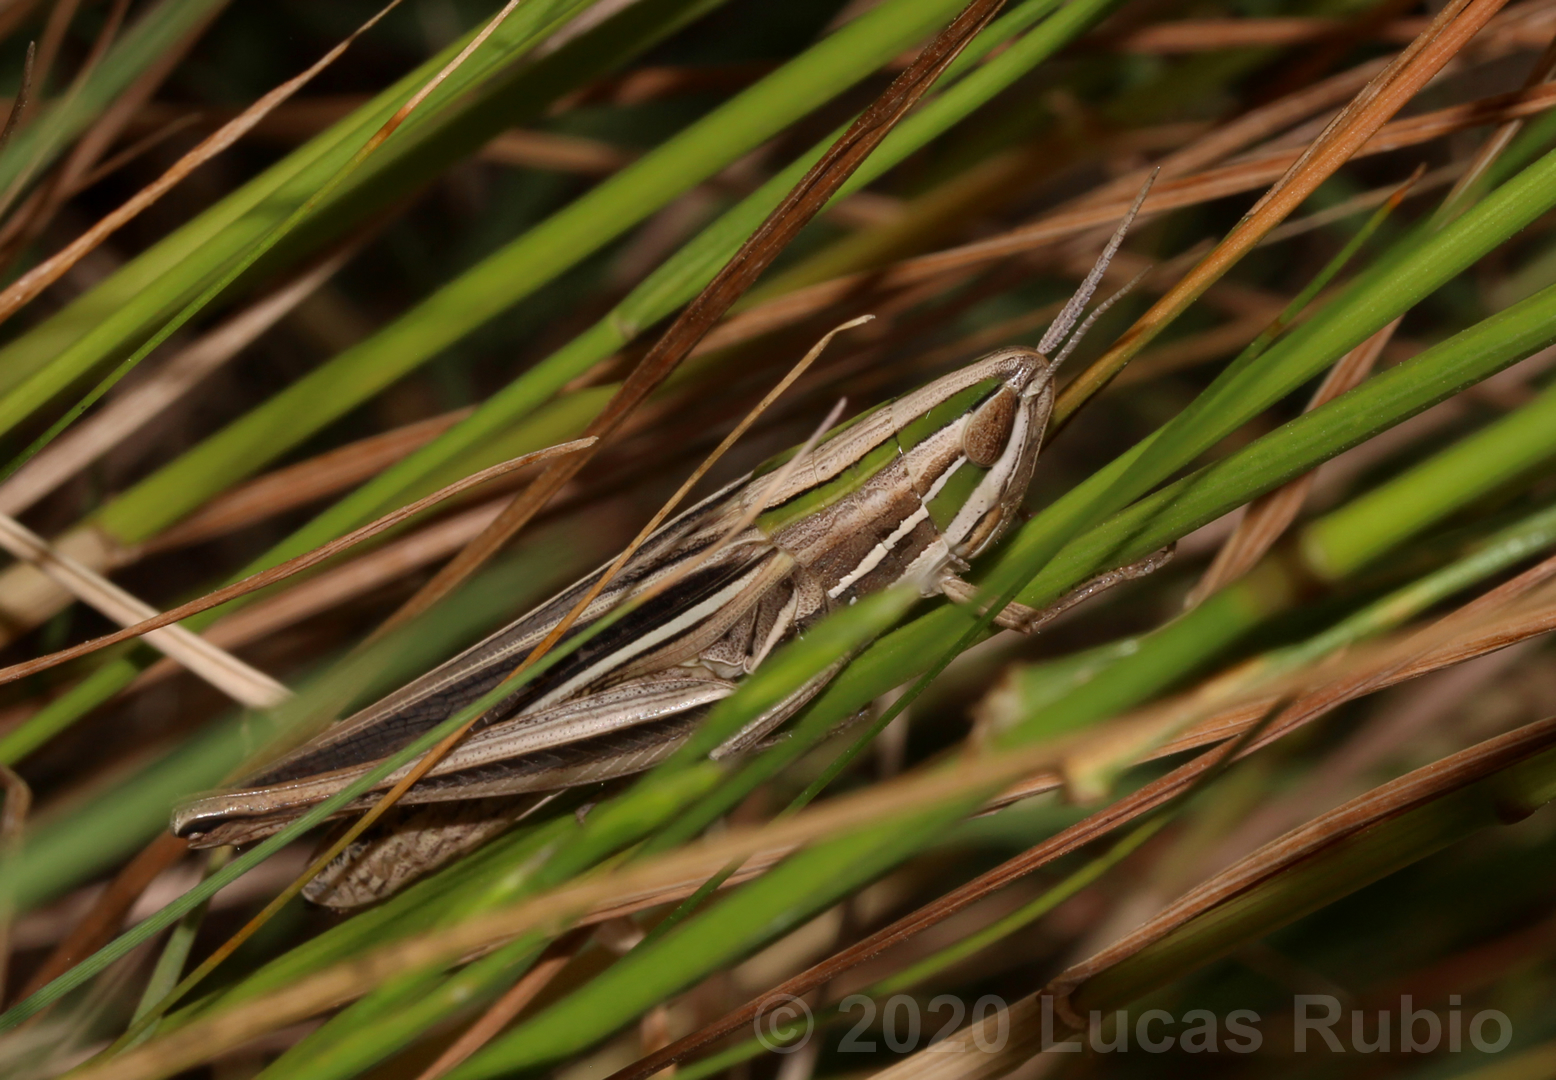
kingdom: Animalia
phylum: Arthropoda
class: Insecta
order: Orthoptera
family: Acrididae
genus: Sinipta
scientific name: Sinipta dalmani
